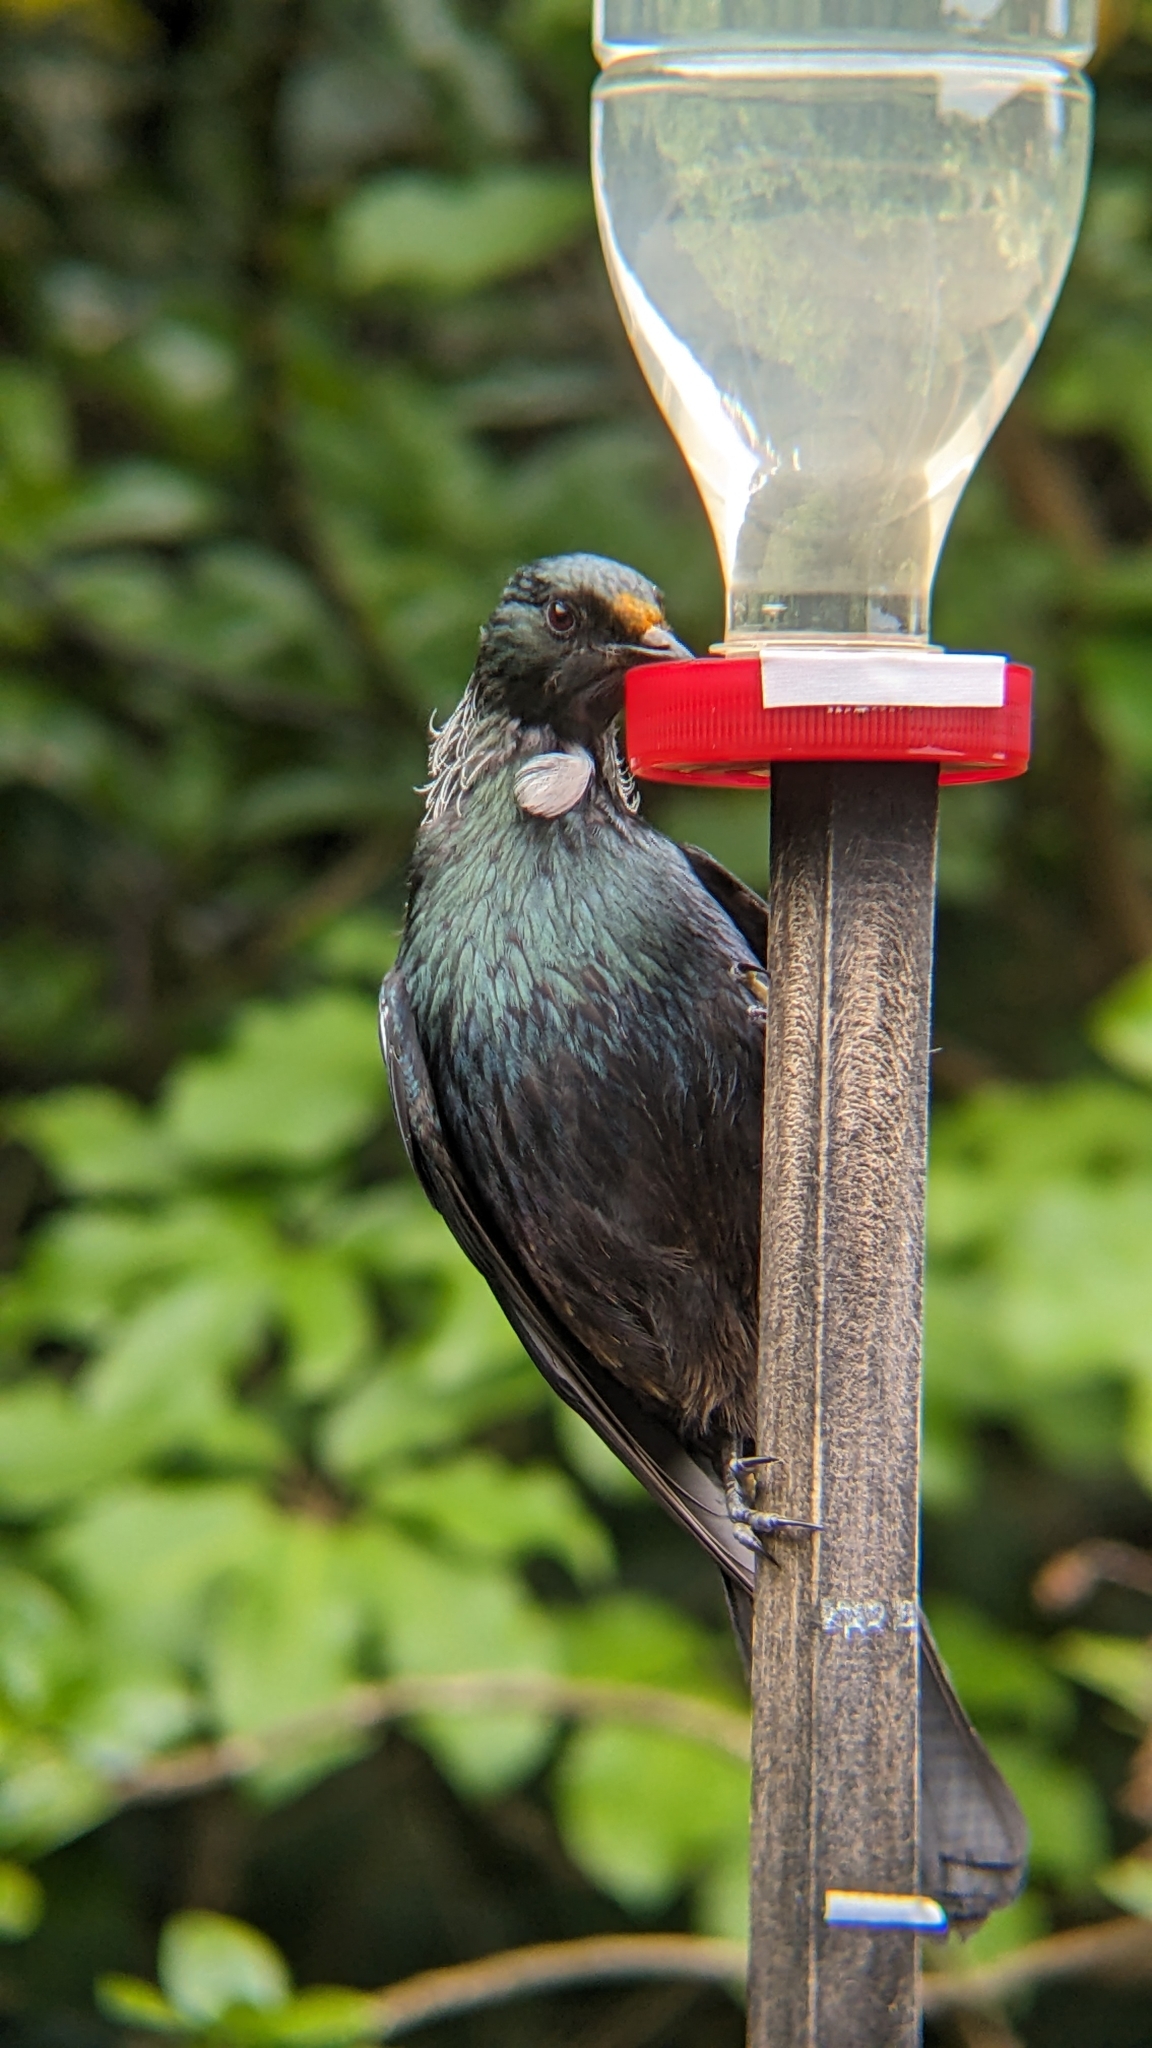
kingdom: Animalia
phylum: Chordata
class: Aves
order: Passeriformes
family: Meliphagidae
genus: Prosthemadera
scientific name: Prosthemadera novaeseelandiae
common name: Tui
